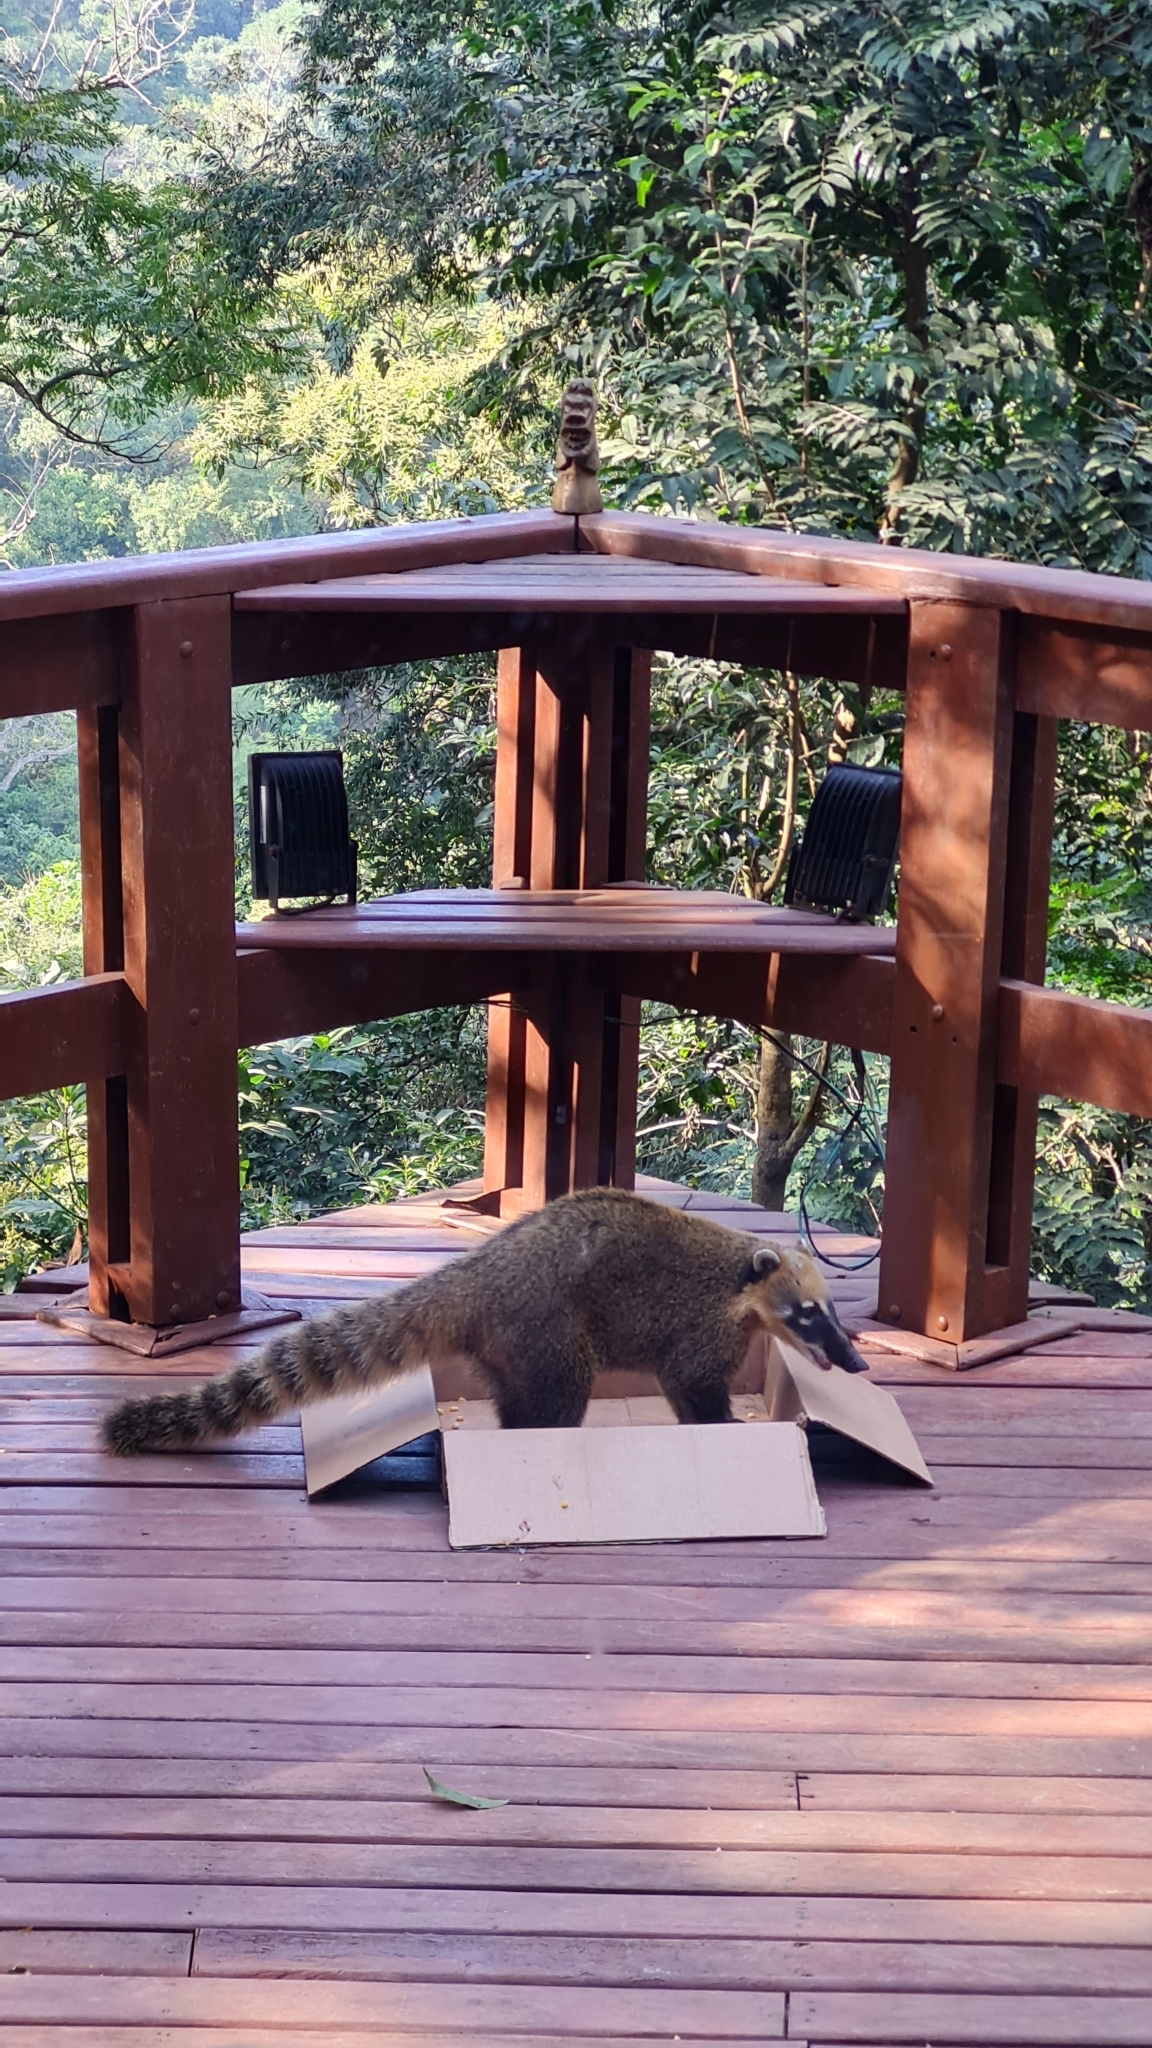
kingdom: Animalia
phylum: Chordata
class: Mammalia
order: Carnivora
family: Procyonidae
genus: Nasua
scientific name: Nasua nasua
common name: South american coati
